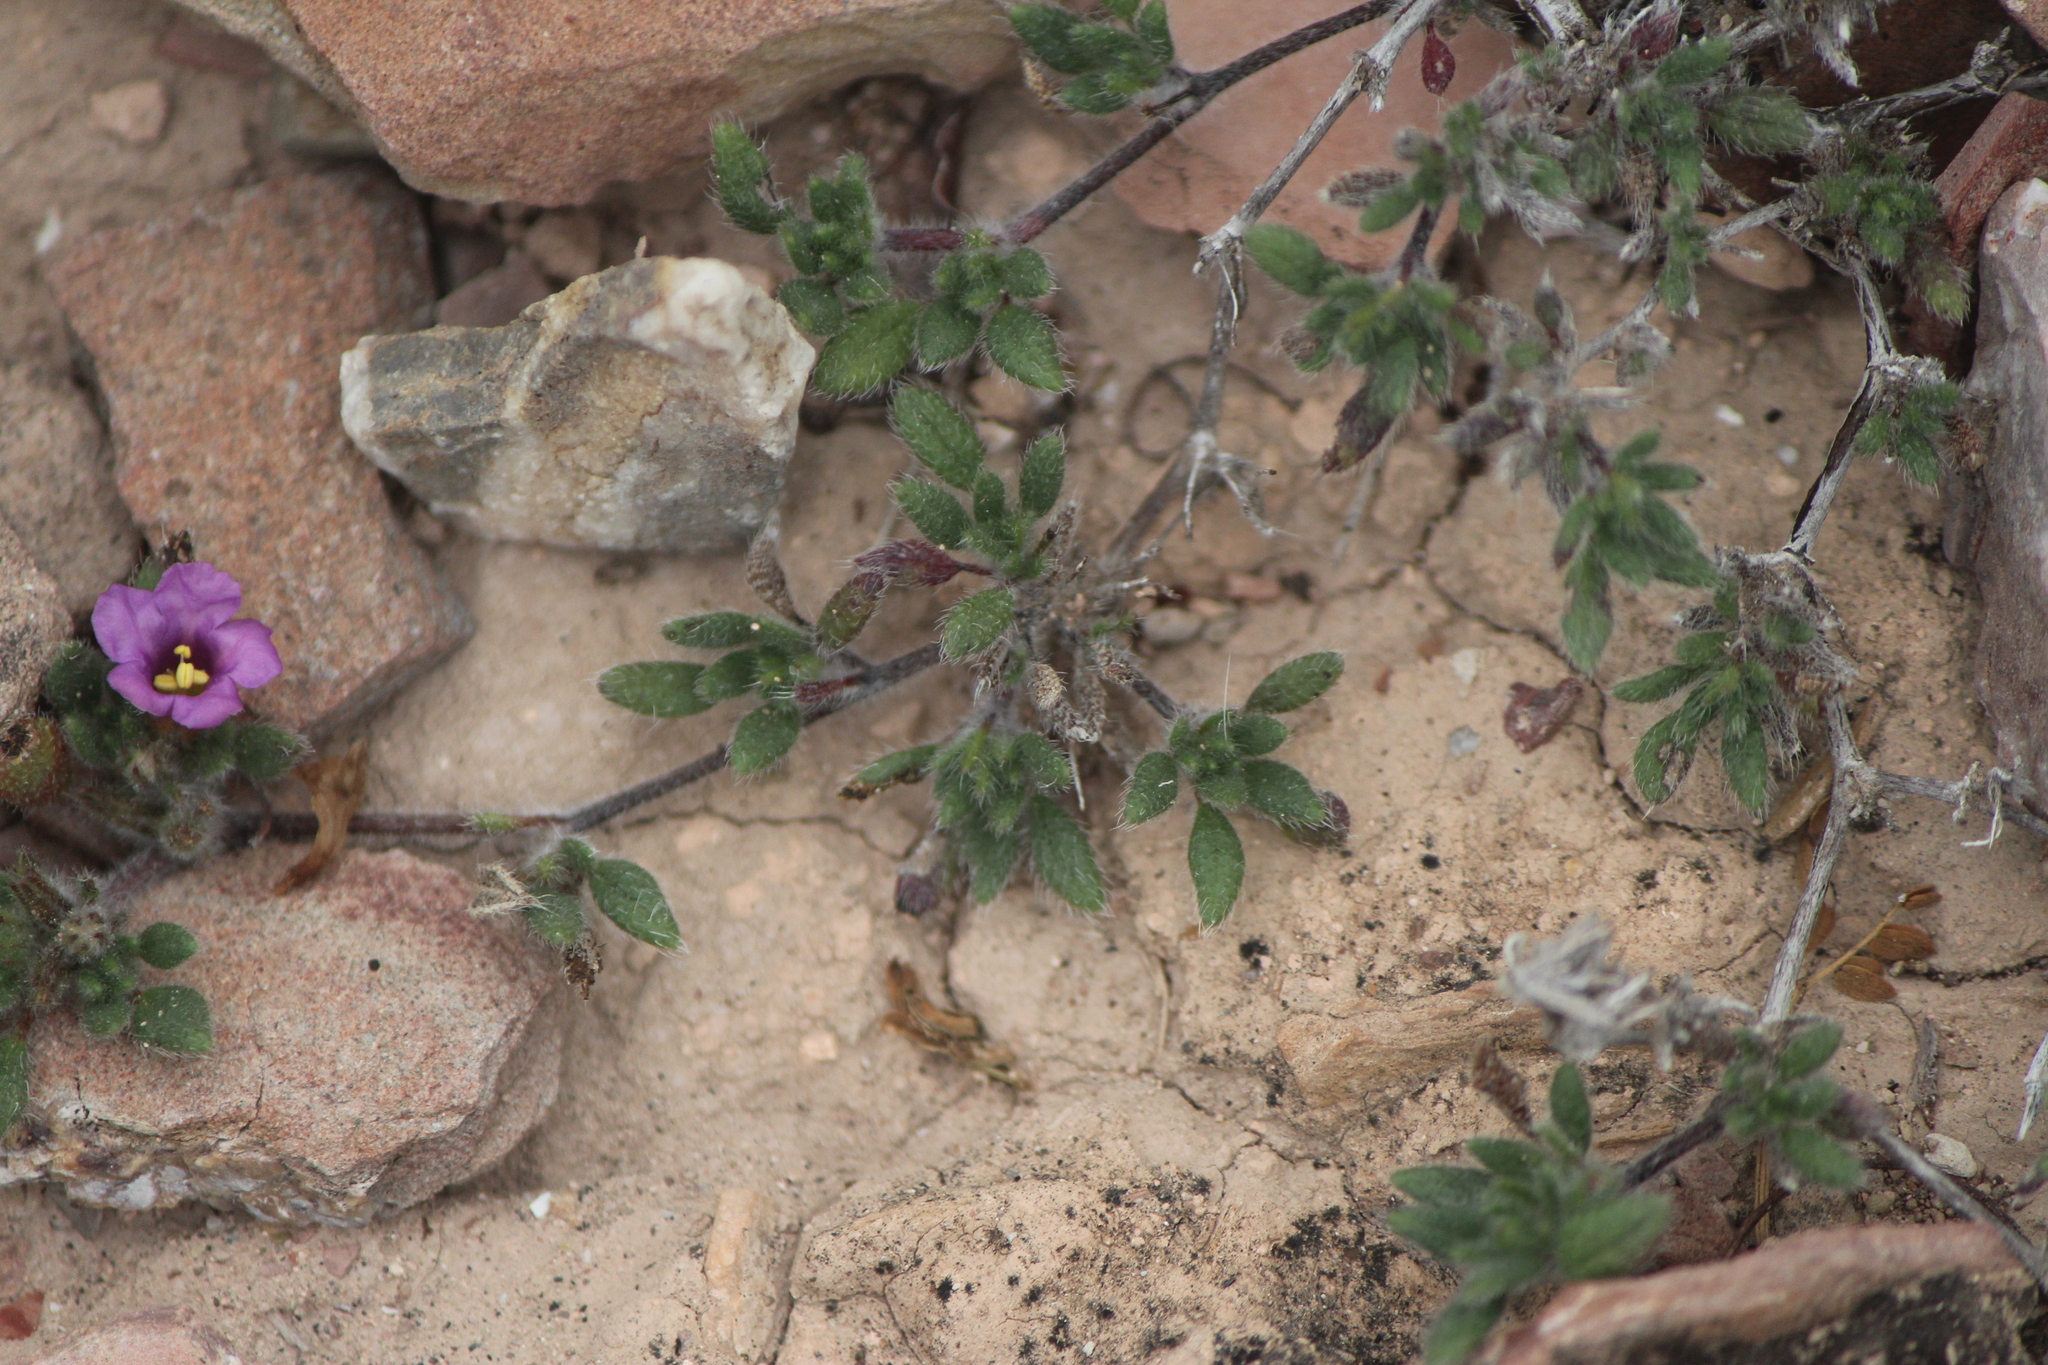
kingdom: Plantae
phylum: Tracheophyta
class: Magnoliopsida
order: Boraginales
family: Namaceae
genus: Nama
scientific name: Nama dichotoma
